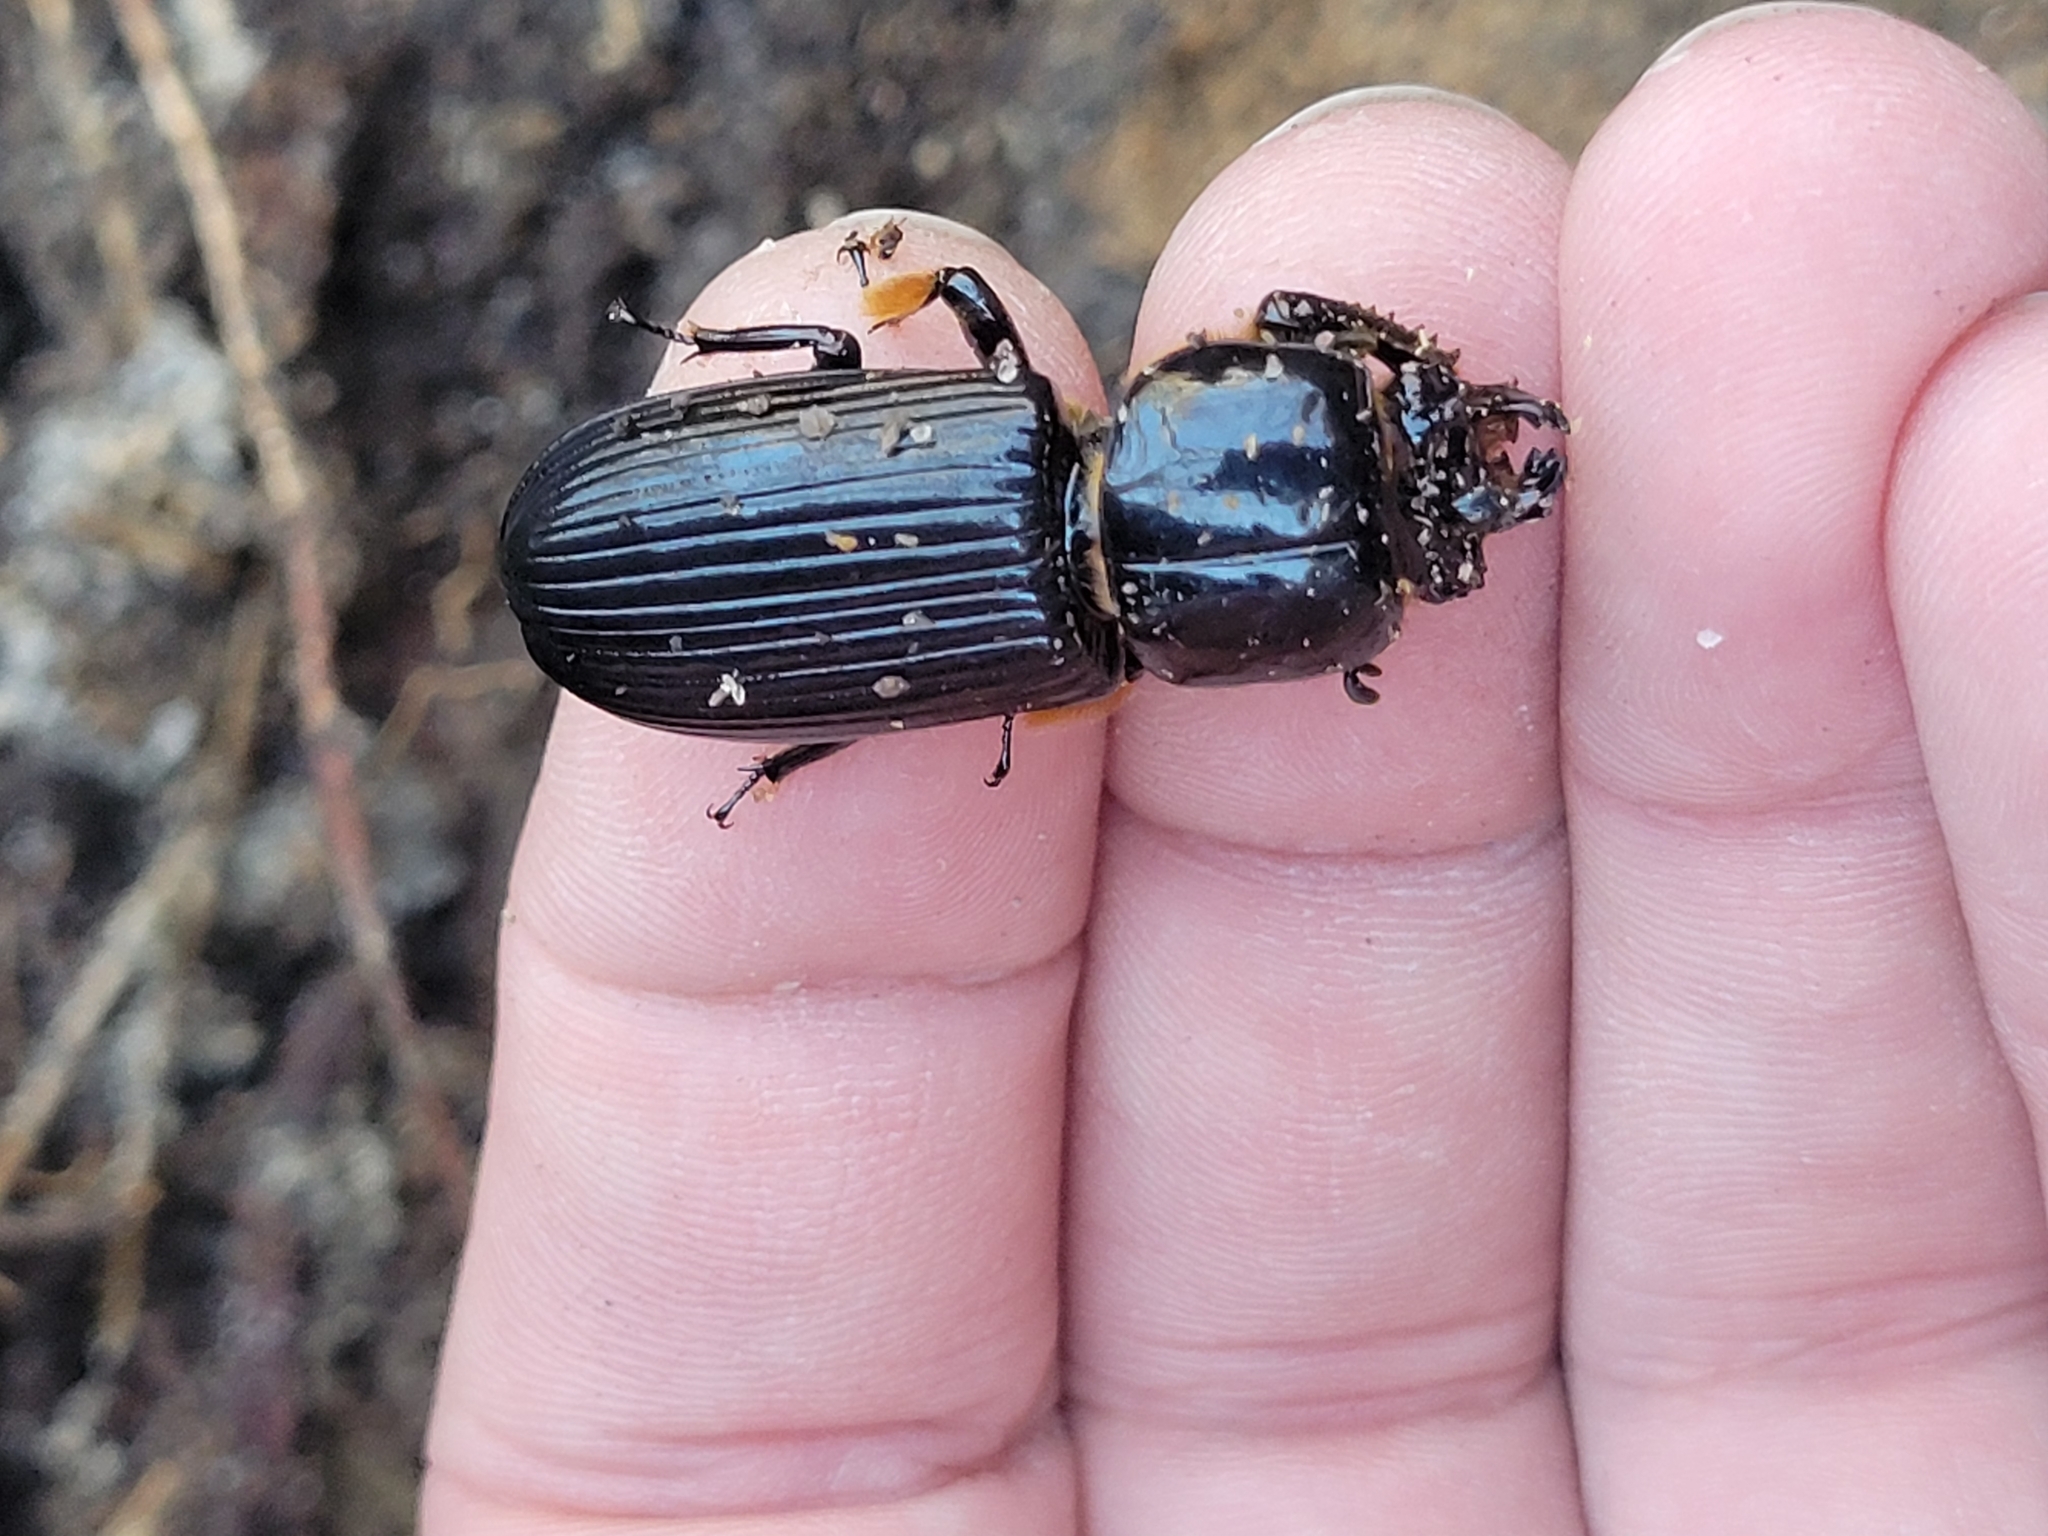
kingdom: Animalia
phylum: Arthropoda
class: Insecta
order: Coleoptera
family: Passalidae
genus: Odontotaenius
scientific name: Odontotaenius disjunctus
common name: Patent leather beetle
